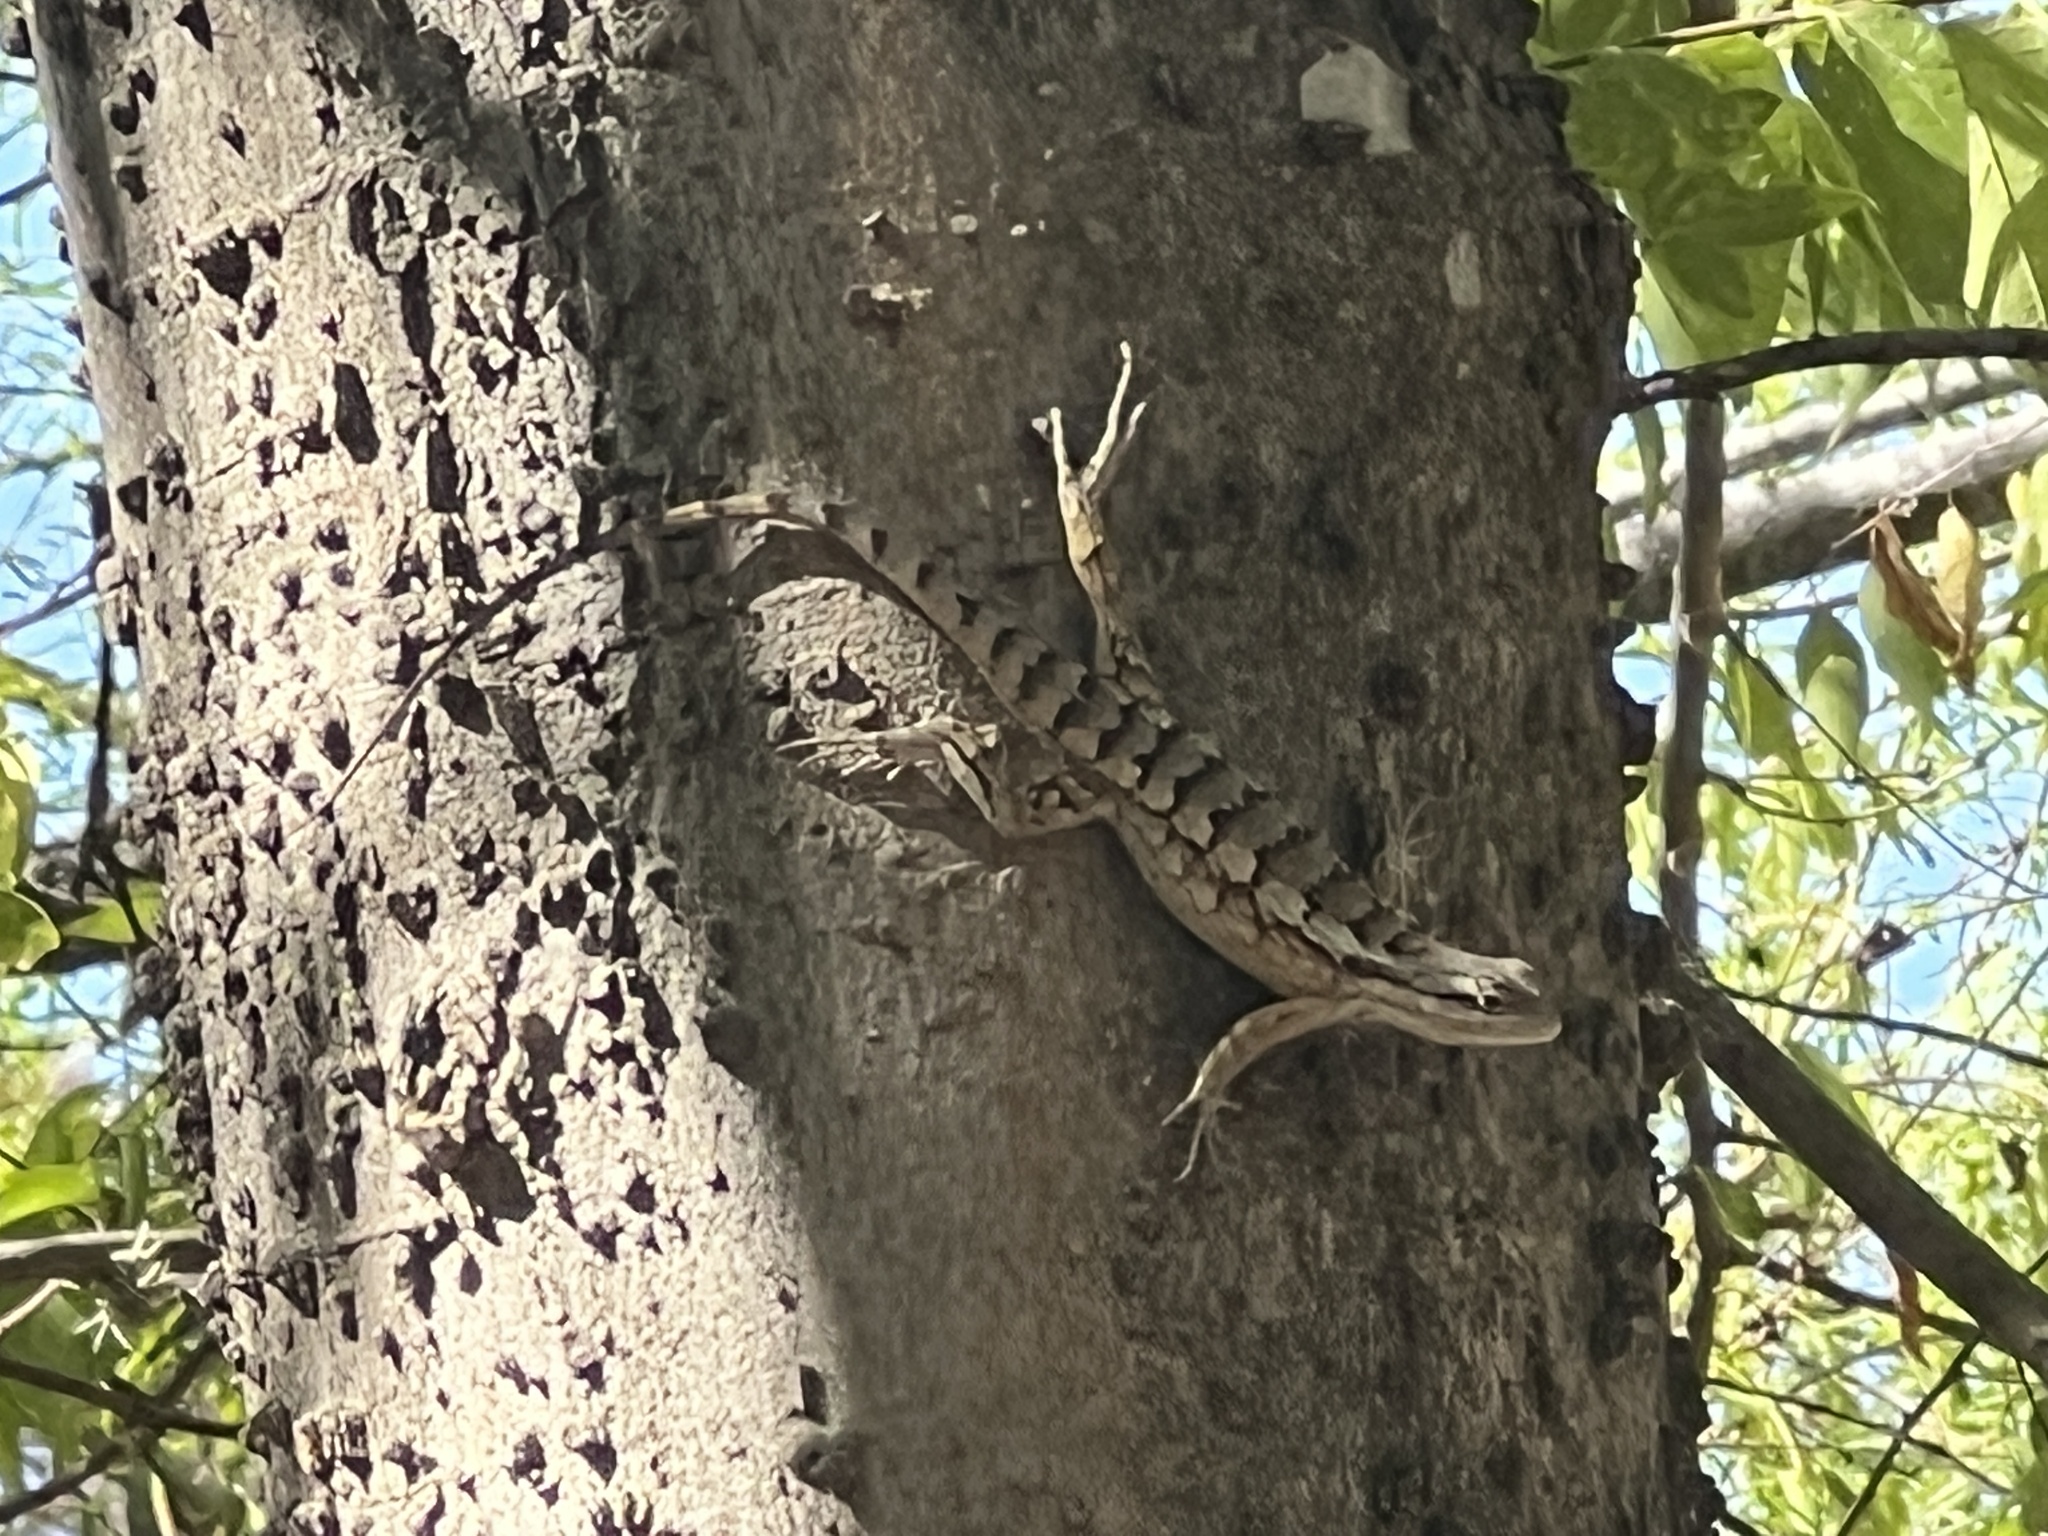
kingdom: Animalia
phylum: Chordata
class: Squamata
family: Phrynosomatidae
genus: Sceloporus
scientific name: Sceloporus olivaceus
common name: Texas spiny lizard
